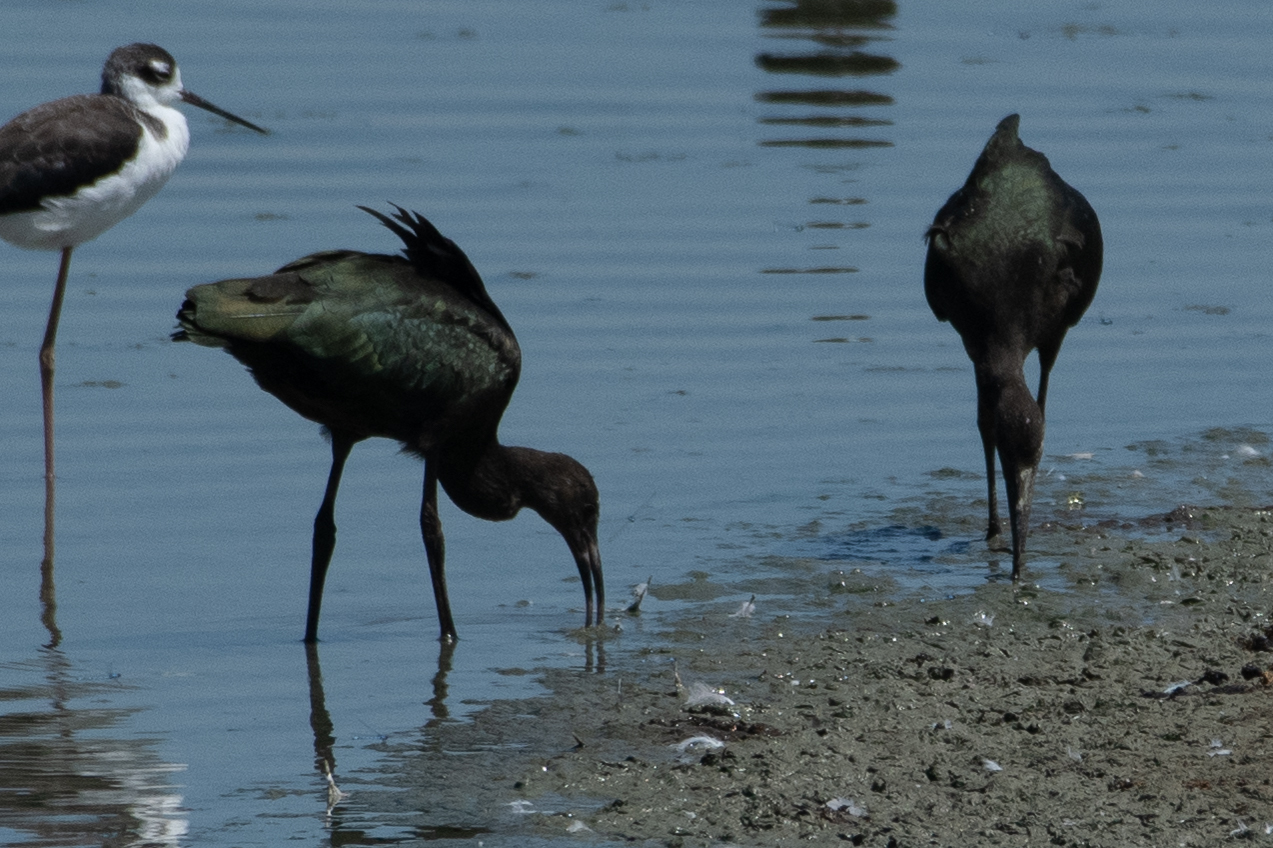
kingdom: Animalia
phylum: Chordata
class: Aves
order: Pelecaniformes
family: Threskiornithidae
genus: Plegadis
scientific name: Plegadis chihi
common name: White-faced ibis
